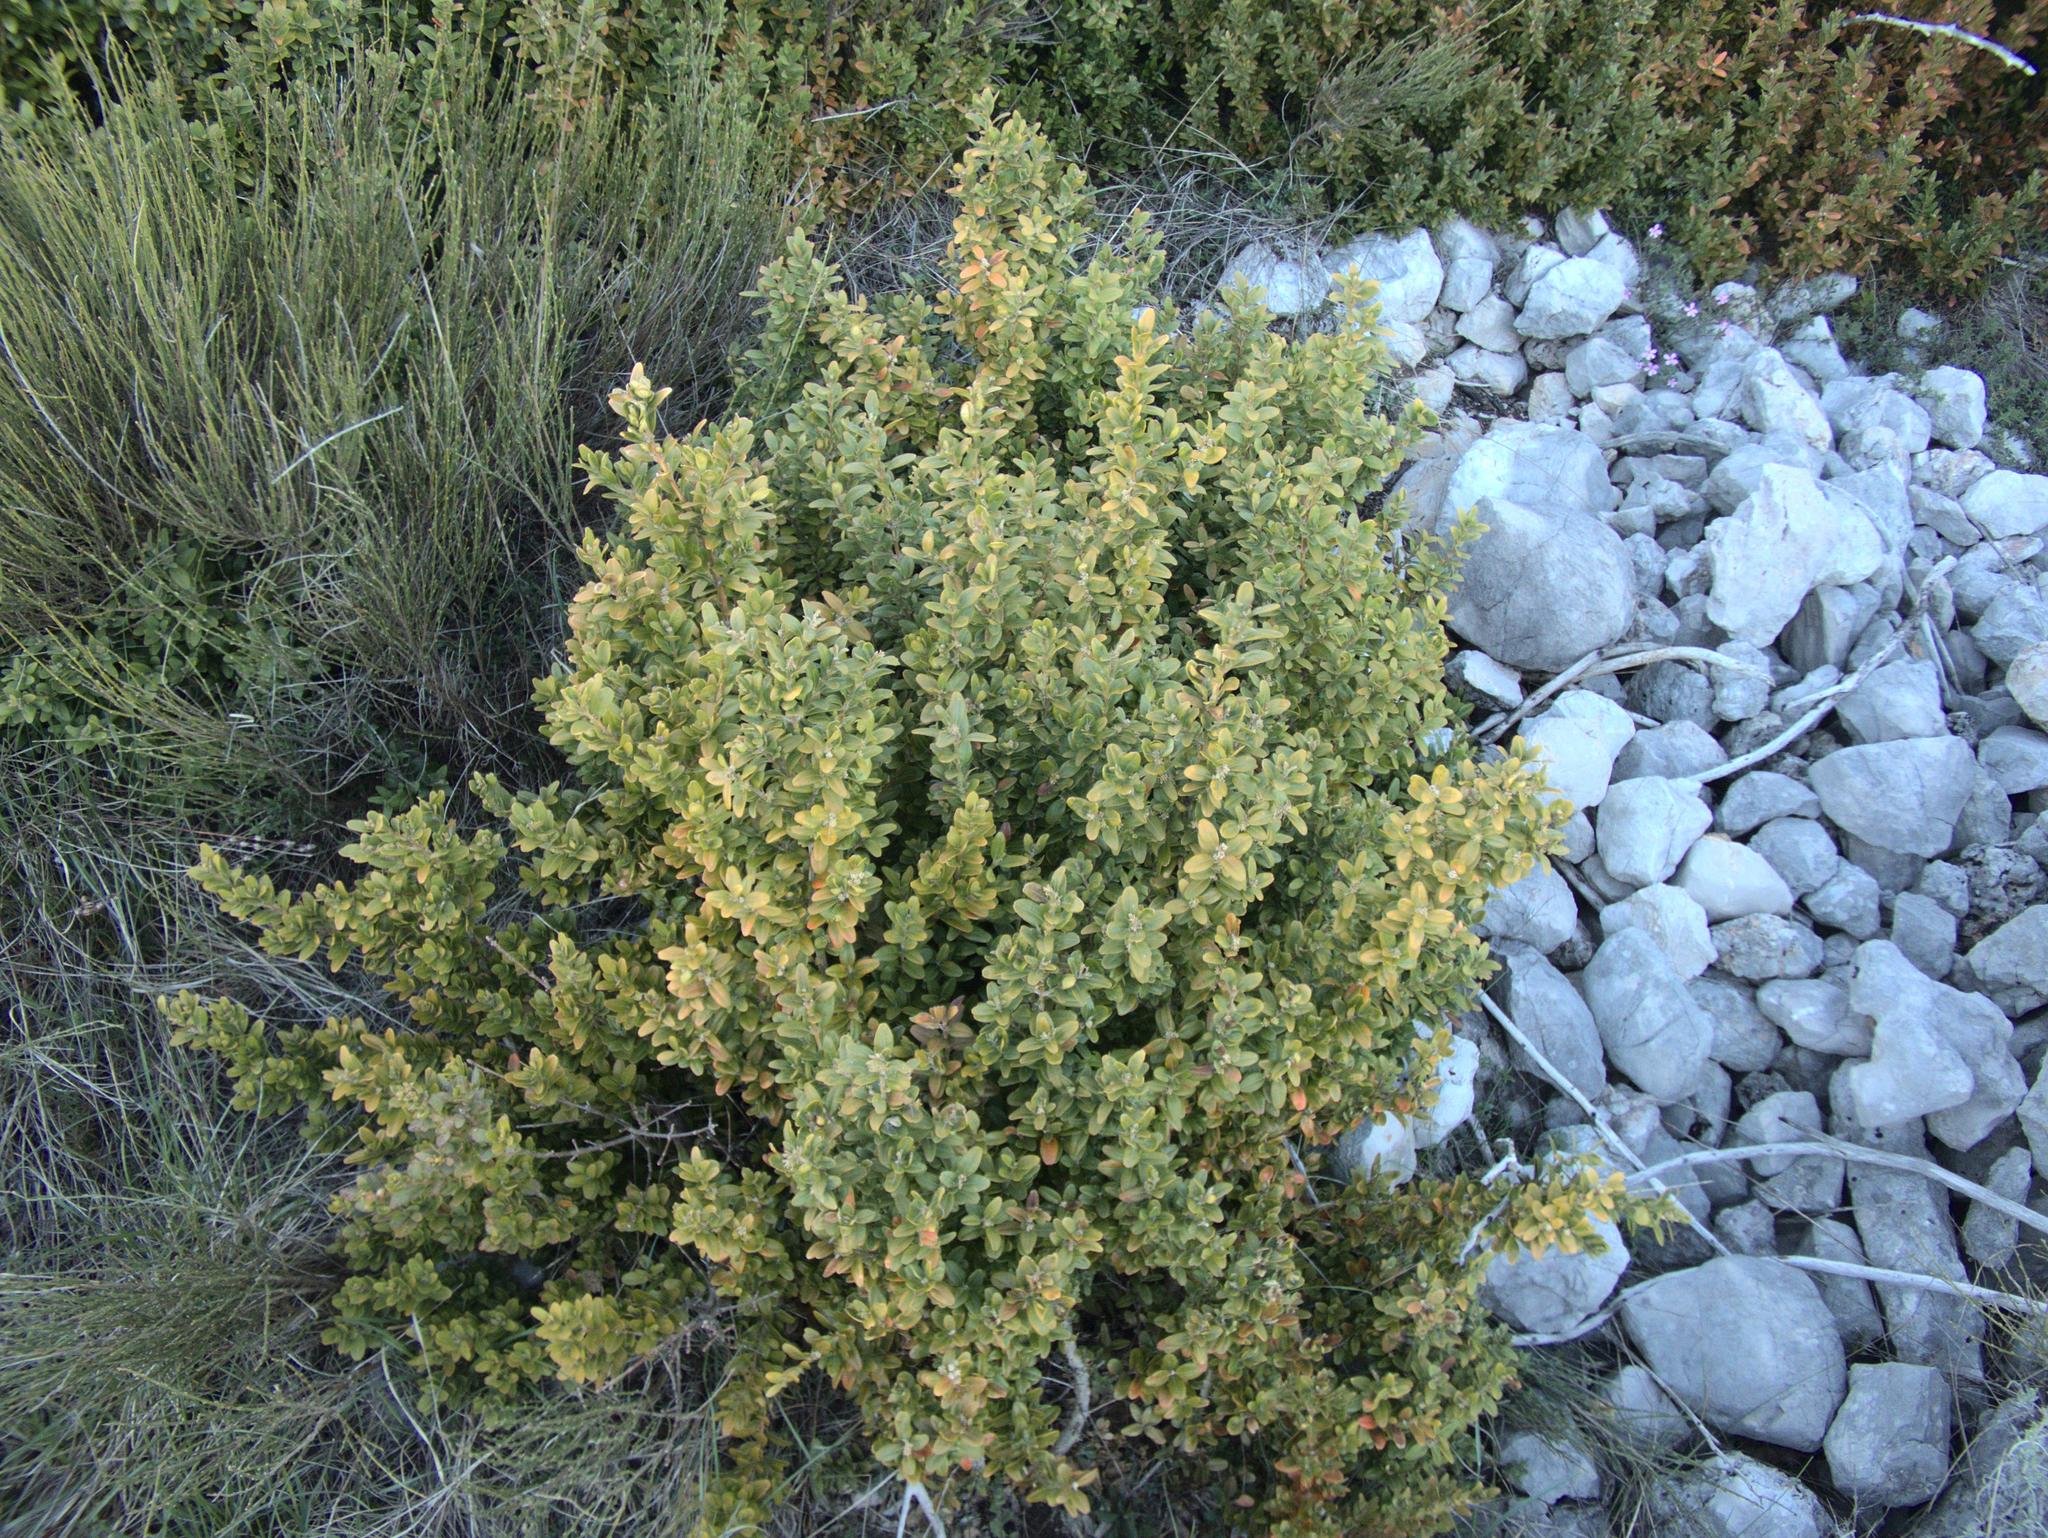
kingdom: Plantae
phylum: Tracheophyta
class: Magnoliopsida
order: Buxales
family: Buxaceae
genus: Buxus
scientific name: Buxus sempervirens
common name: Box
